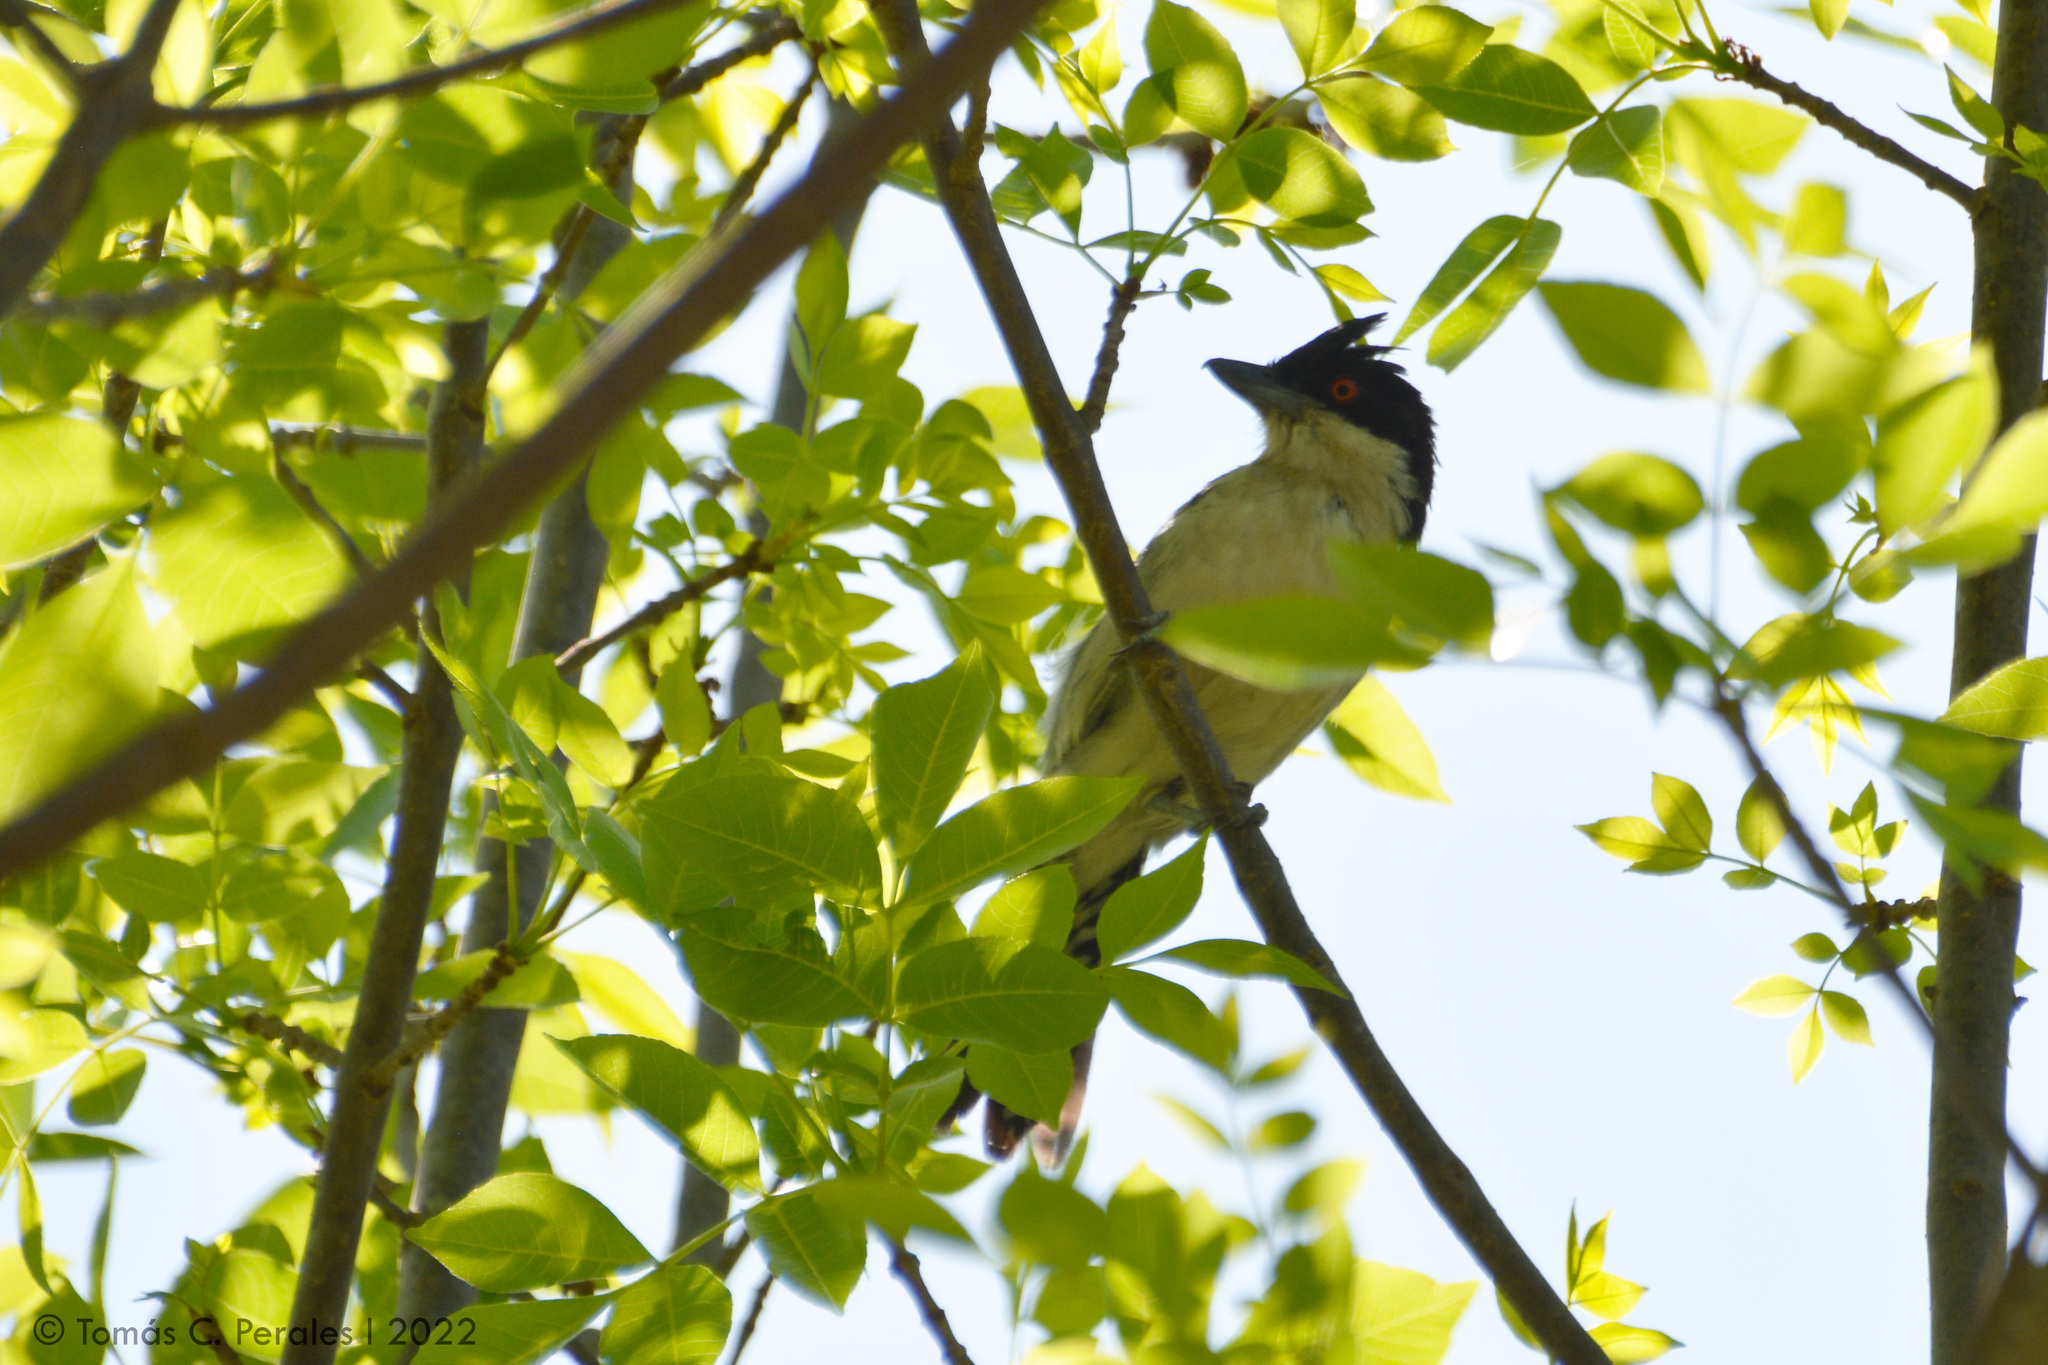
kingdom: Animalia
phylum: Chordata
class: Aves
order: Passeriformes
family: Thamnophilidae
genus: Taraba
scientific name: Taraba major
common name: Great antshrike
